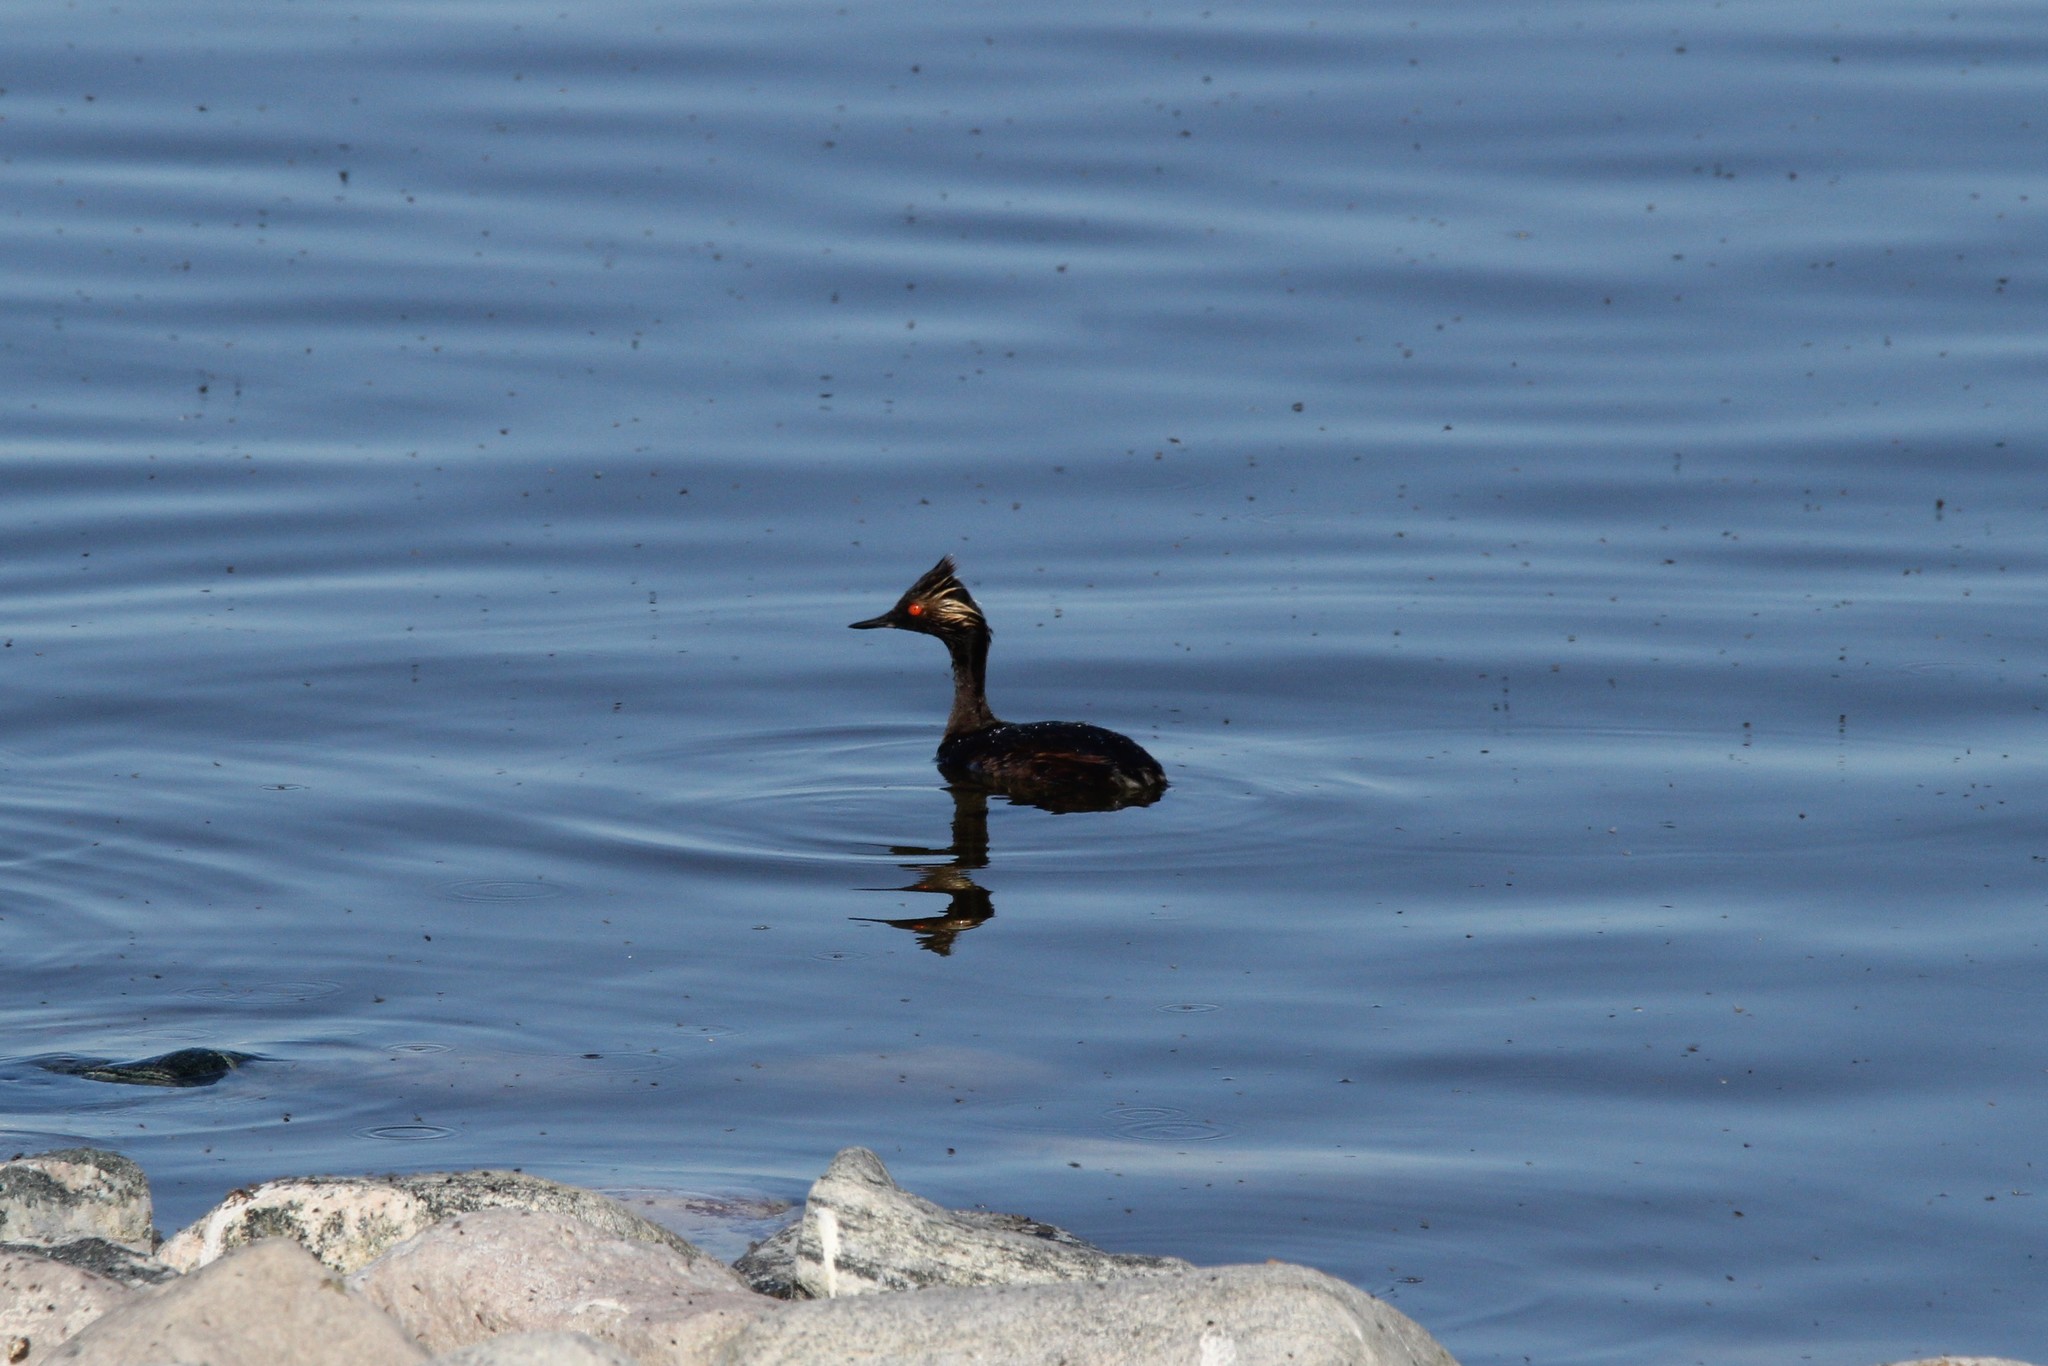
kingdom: Animalia
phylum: Chordata
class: Aves
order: Podicipediformes
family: Podicipedidae
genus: Podiceps
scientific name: Podiceps nigricollis
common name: Black-necked grebe
